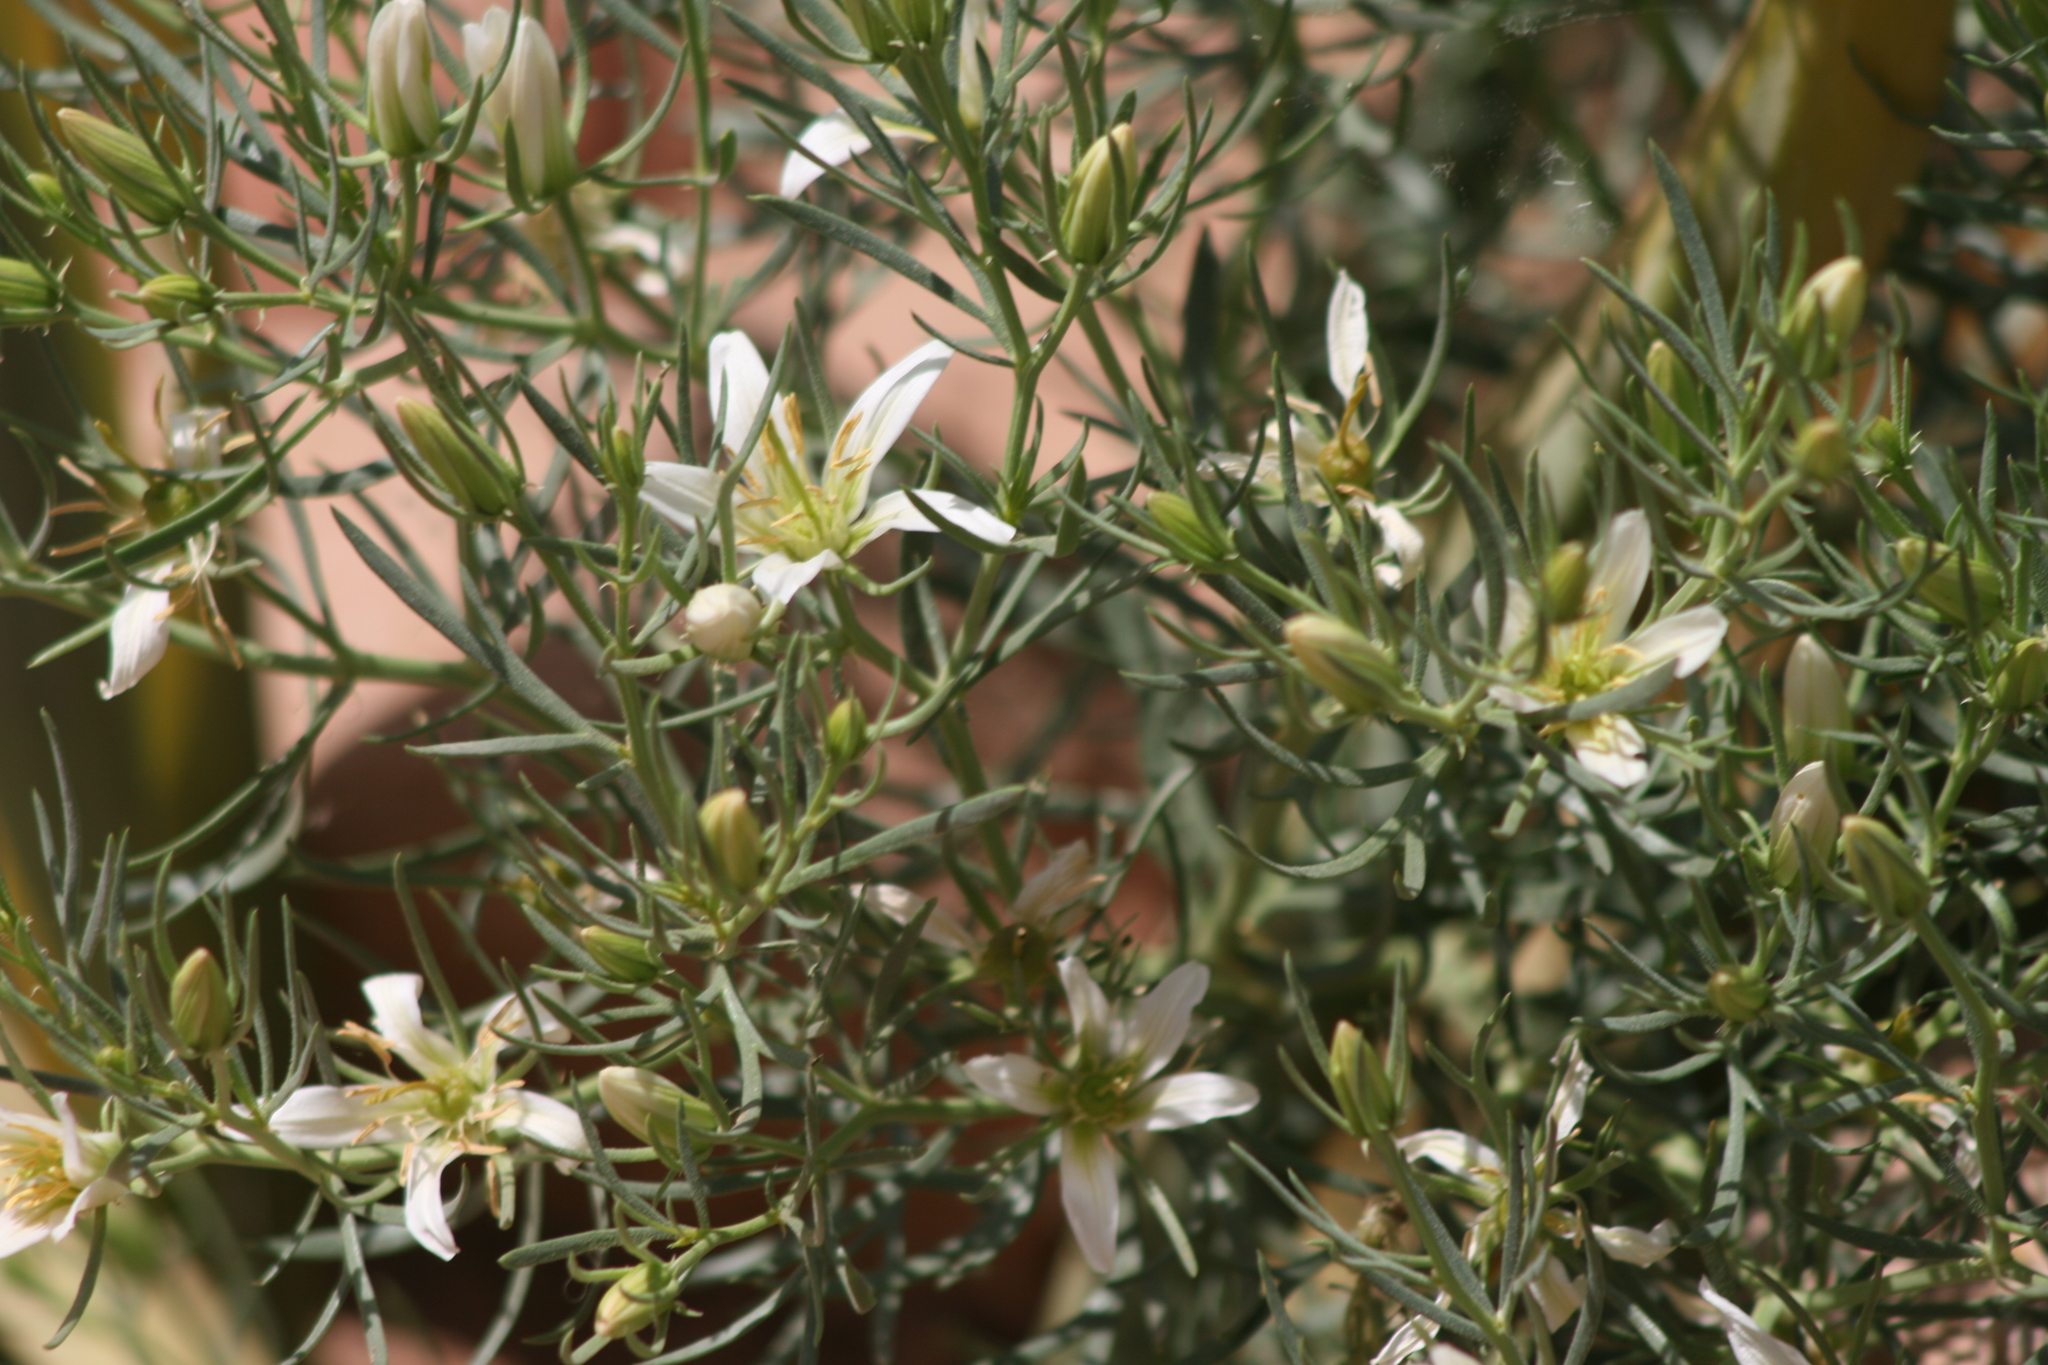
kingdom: Plantae
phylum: Tracheophyta
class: Magnoliopsida
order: Sapindales
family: Tetradiclidaceae
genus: Peganum
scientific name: Peganum harmala
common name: Harmal peganum
